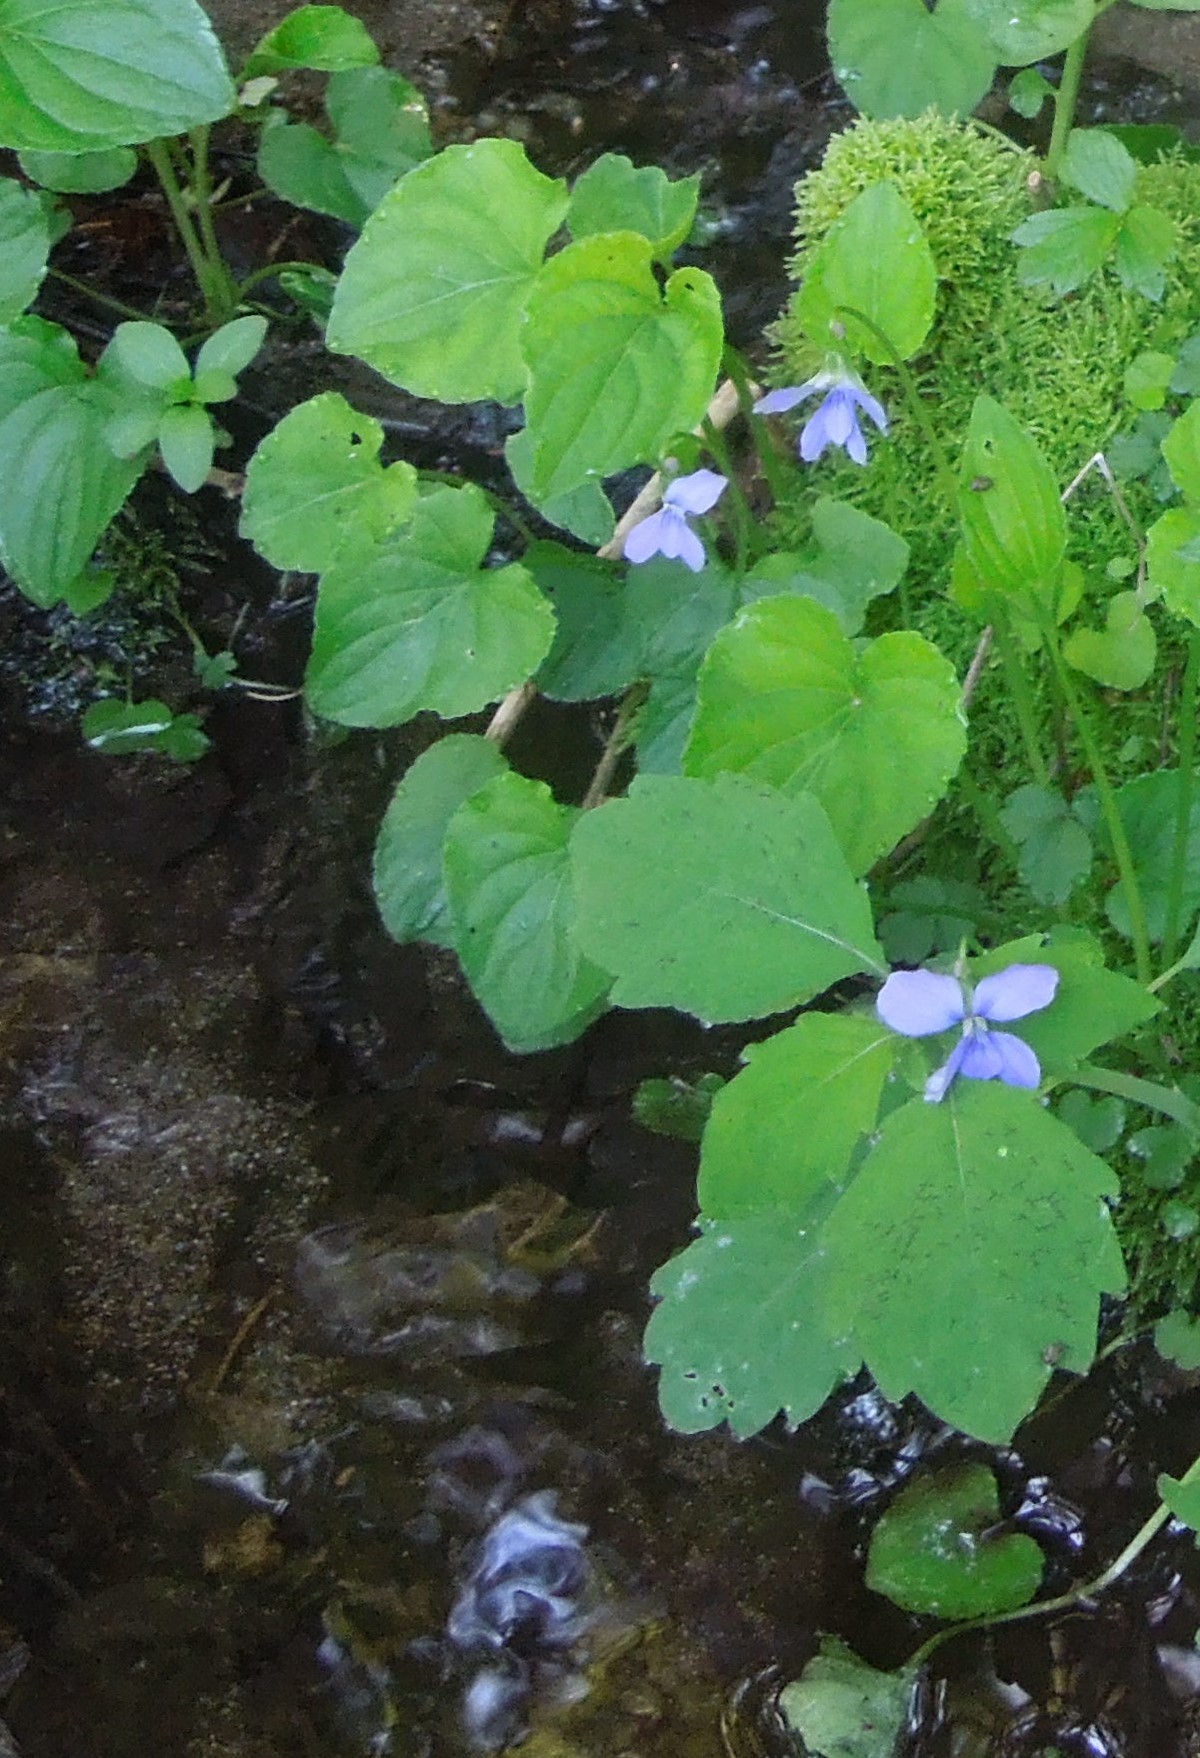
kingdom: Plantae
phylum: Tracheophyta
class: Magnoliopsida
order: Malpighiales
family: Violaceae
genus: Viola
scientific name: Viola cucullata
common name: Marsh blue violet
